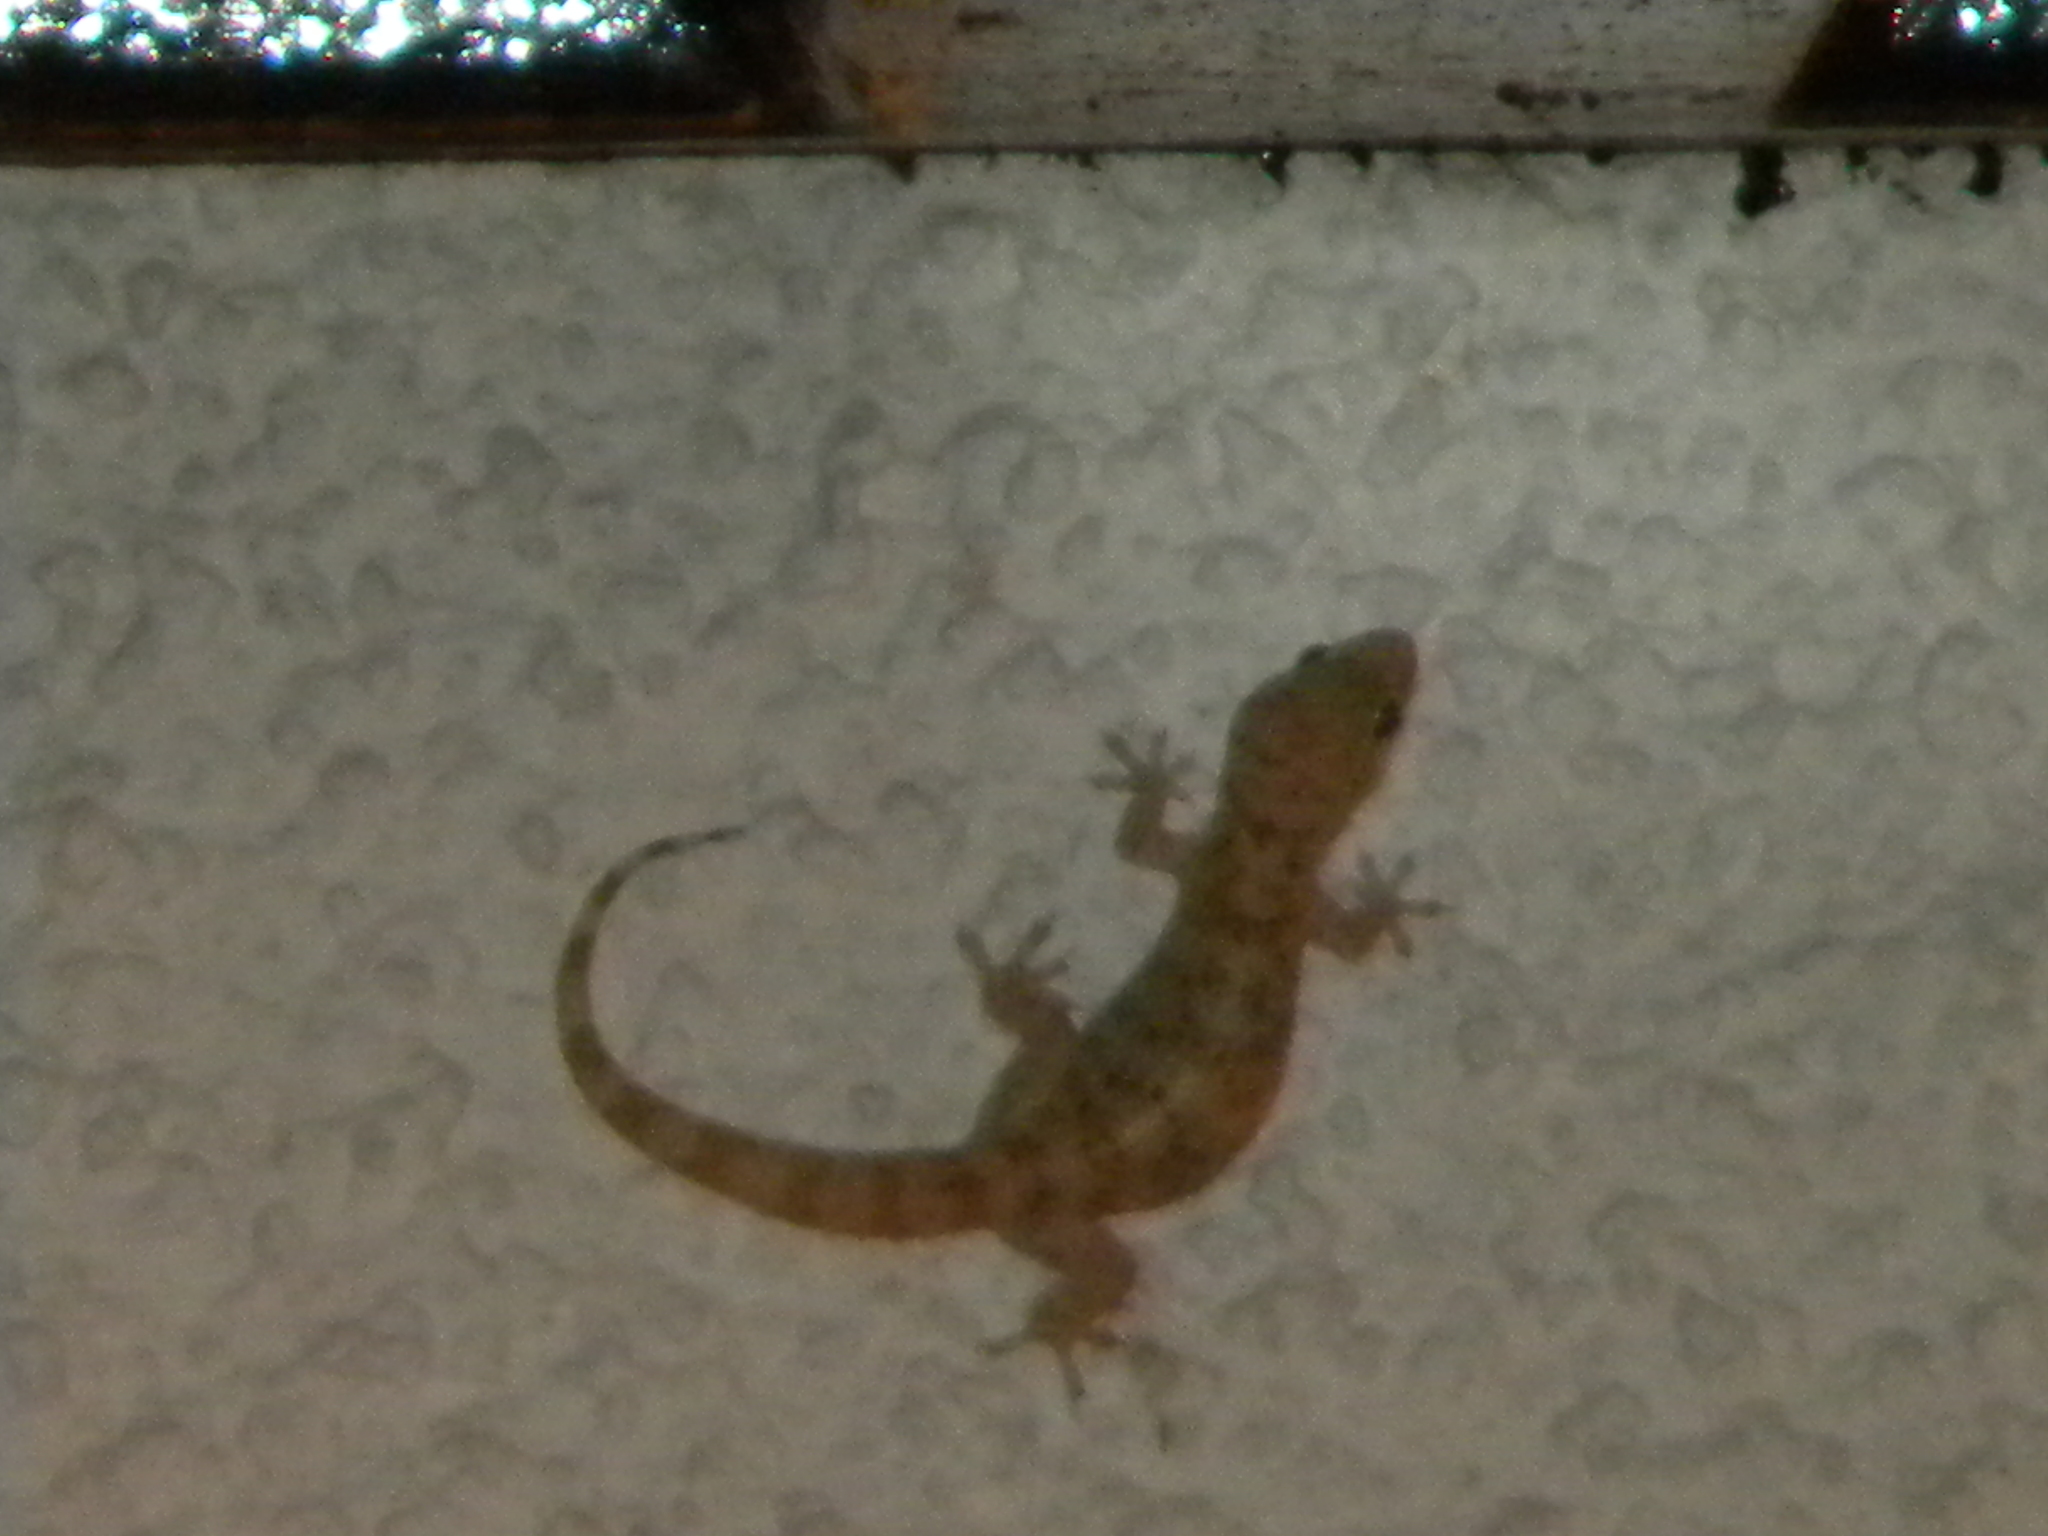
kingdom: Animalia
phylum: Chordata
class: Squamata
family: Gekkonidae
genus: Hemidactylus
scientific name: Hemidactylus turcicus
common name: Turkish gecko
